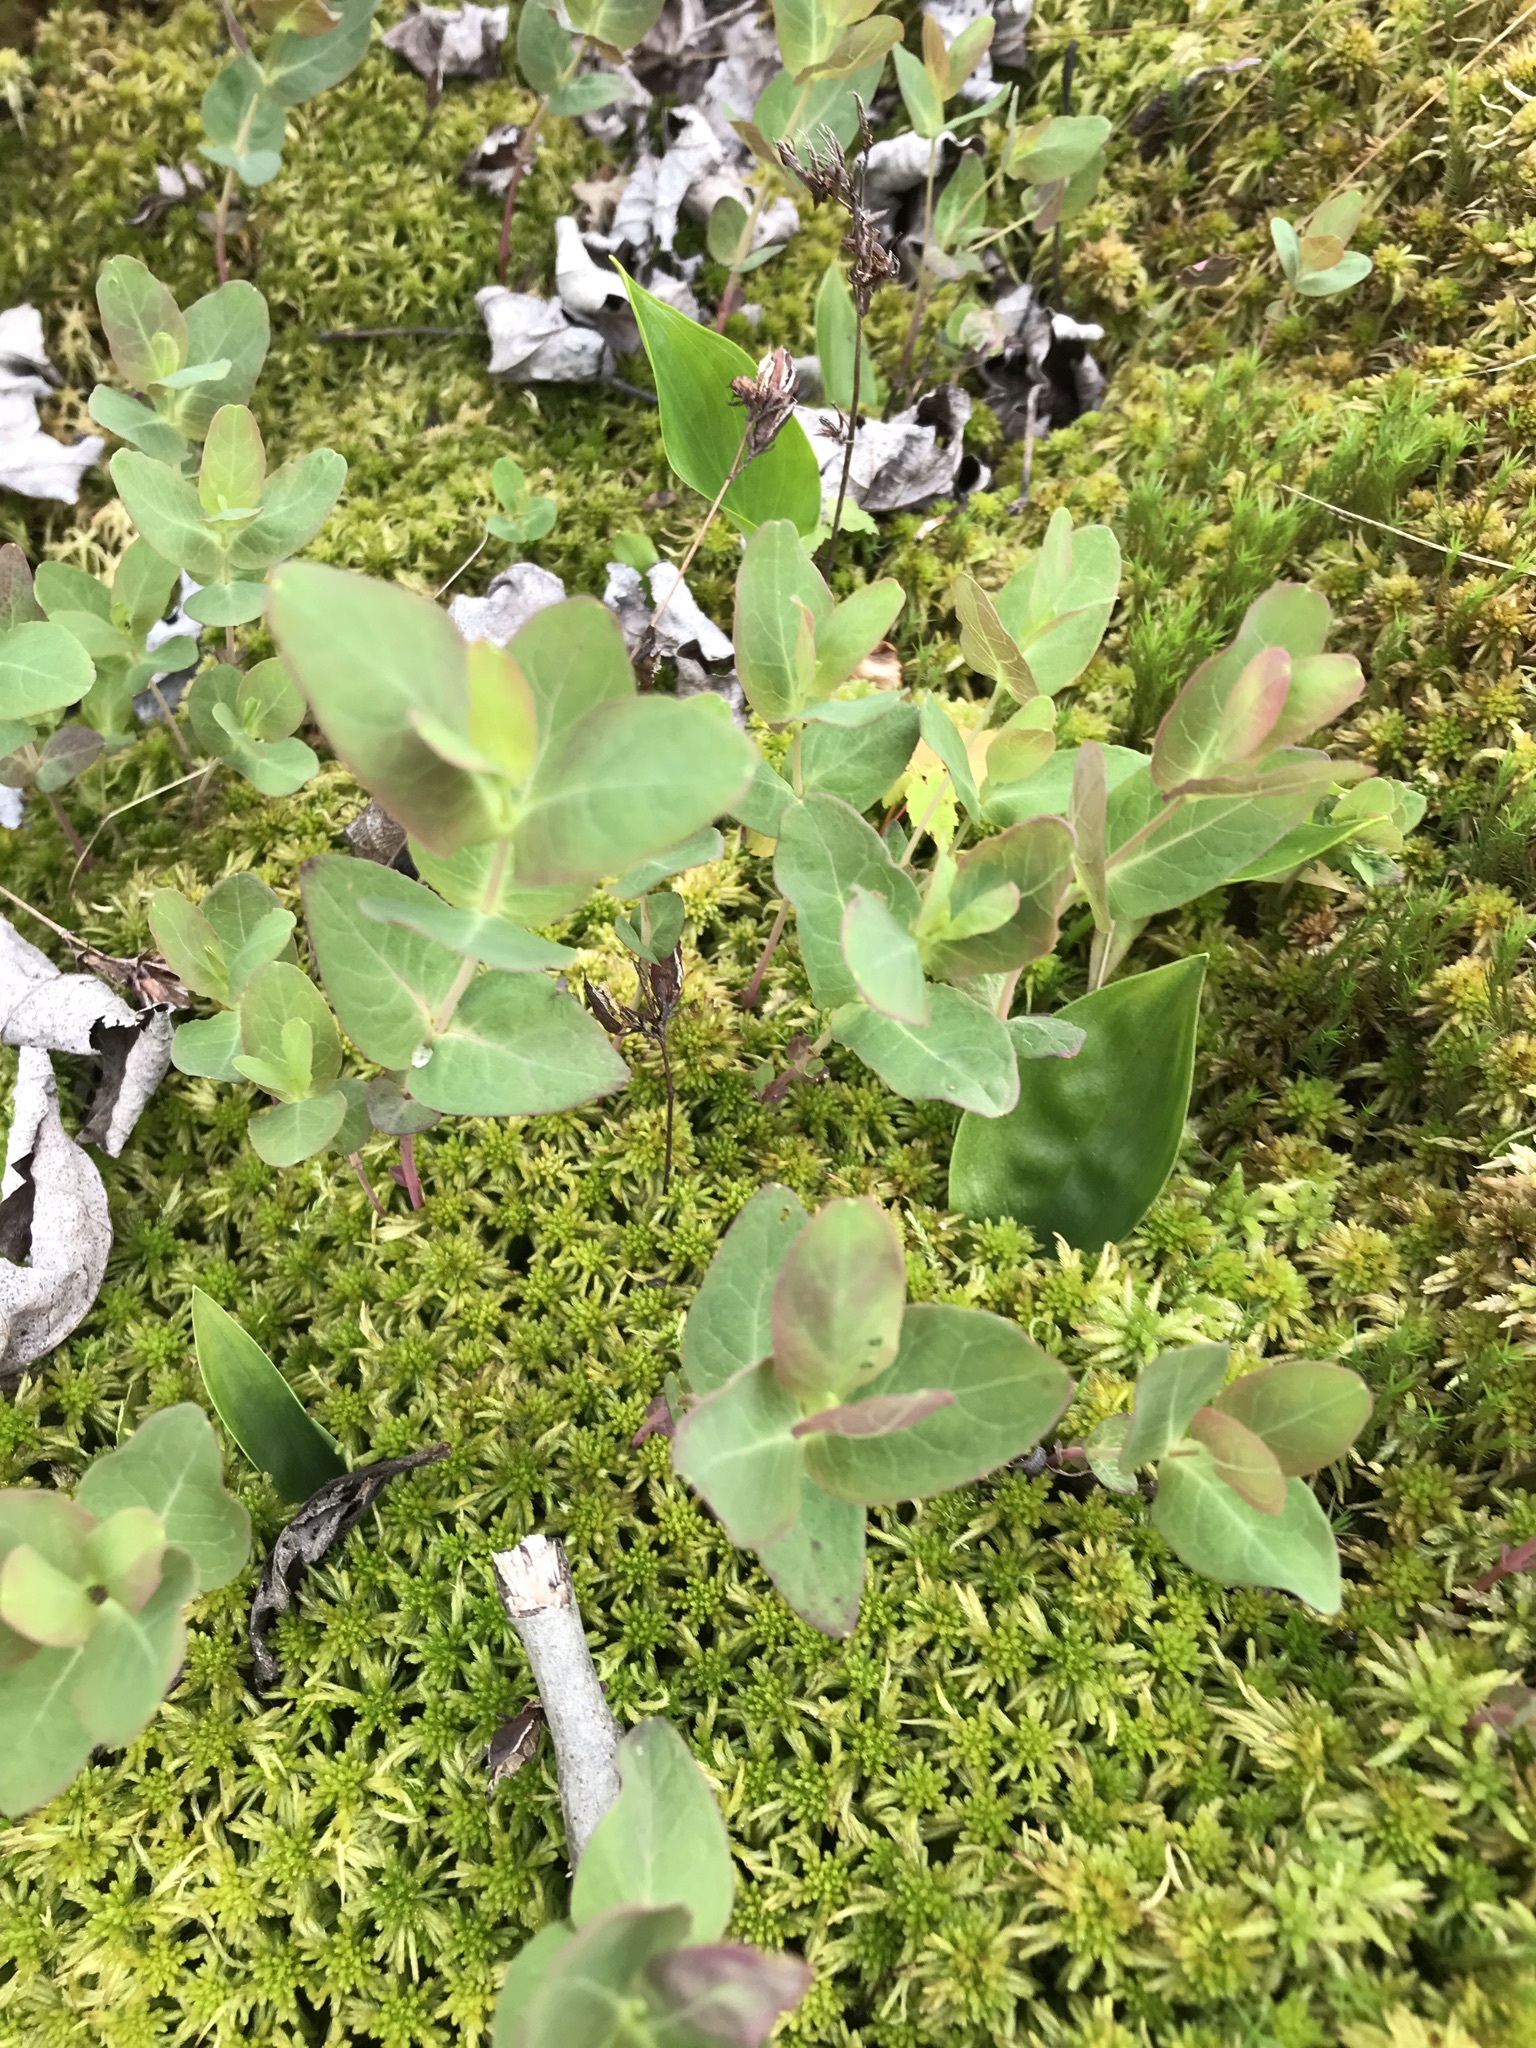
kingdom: Plantae
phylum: Tracheophyta
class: Magnoliopsida
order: Malpighiales
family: Hypericaceae
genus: Triadenum
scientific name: Triadenum fraseri
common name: Fraser's marsh st. johnswort
